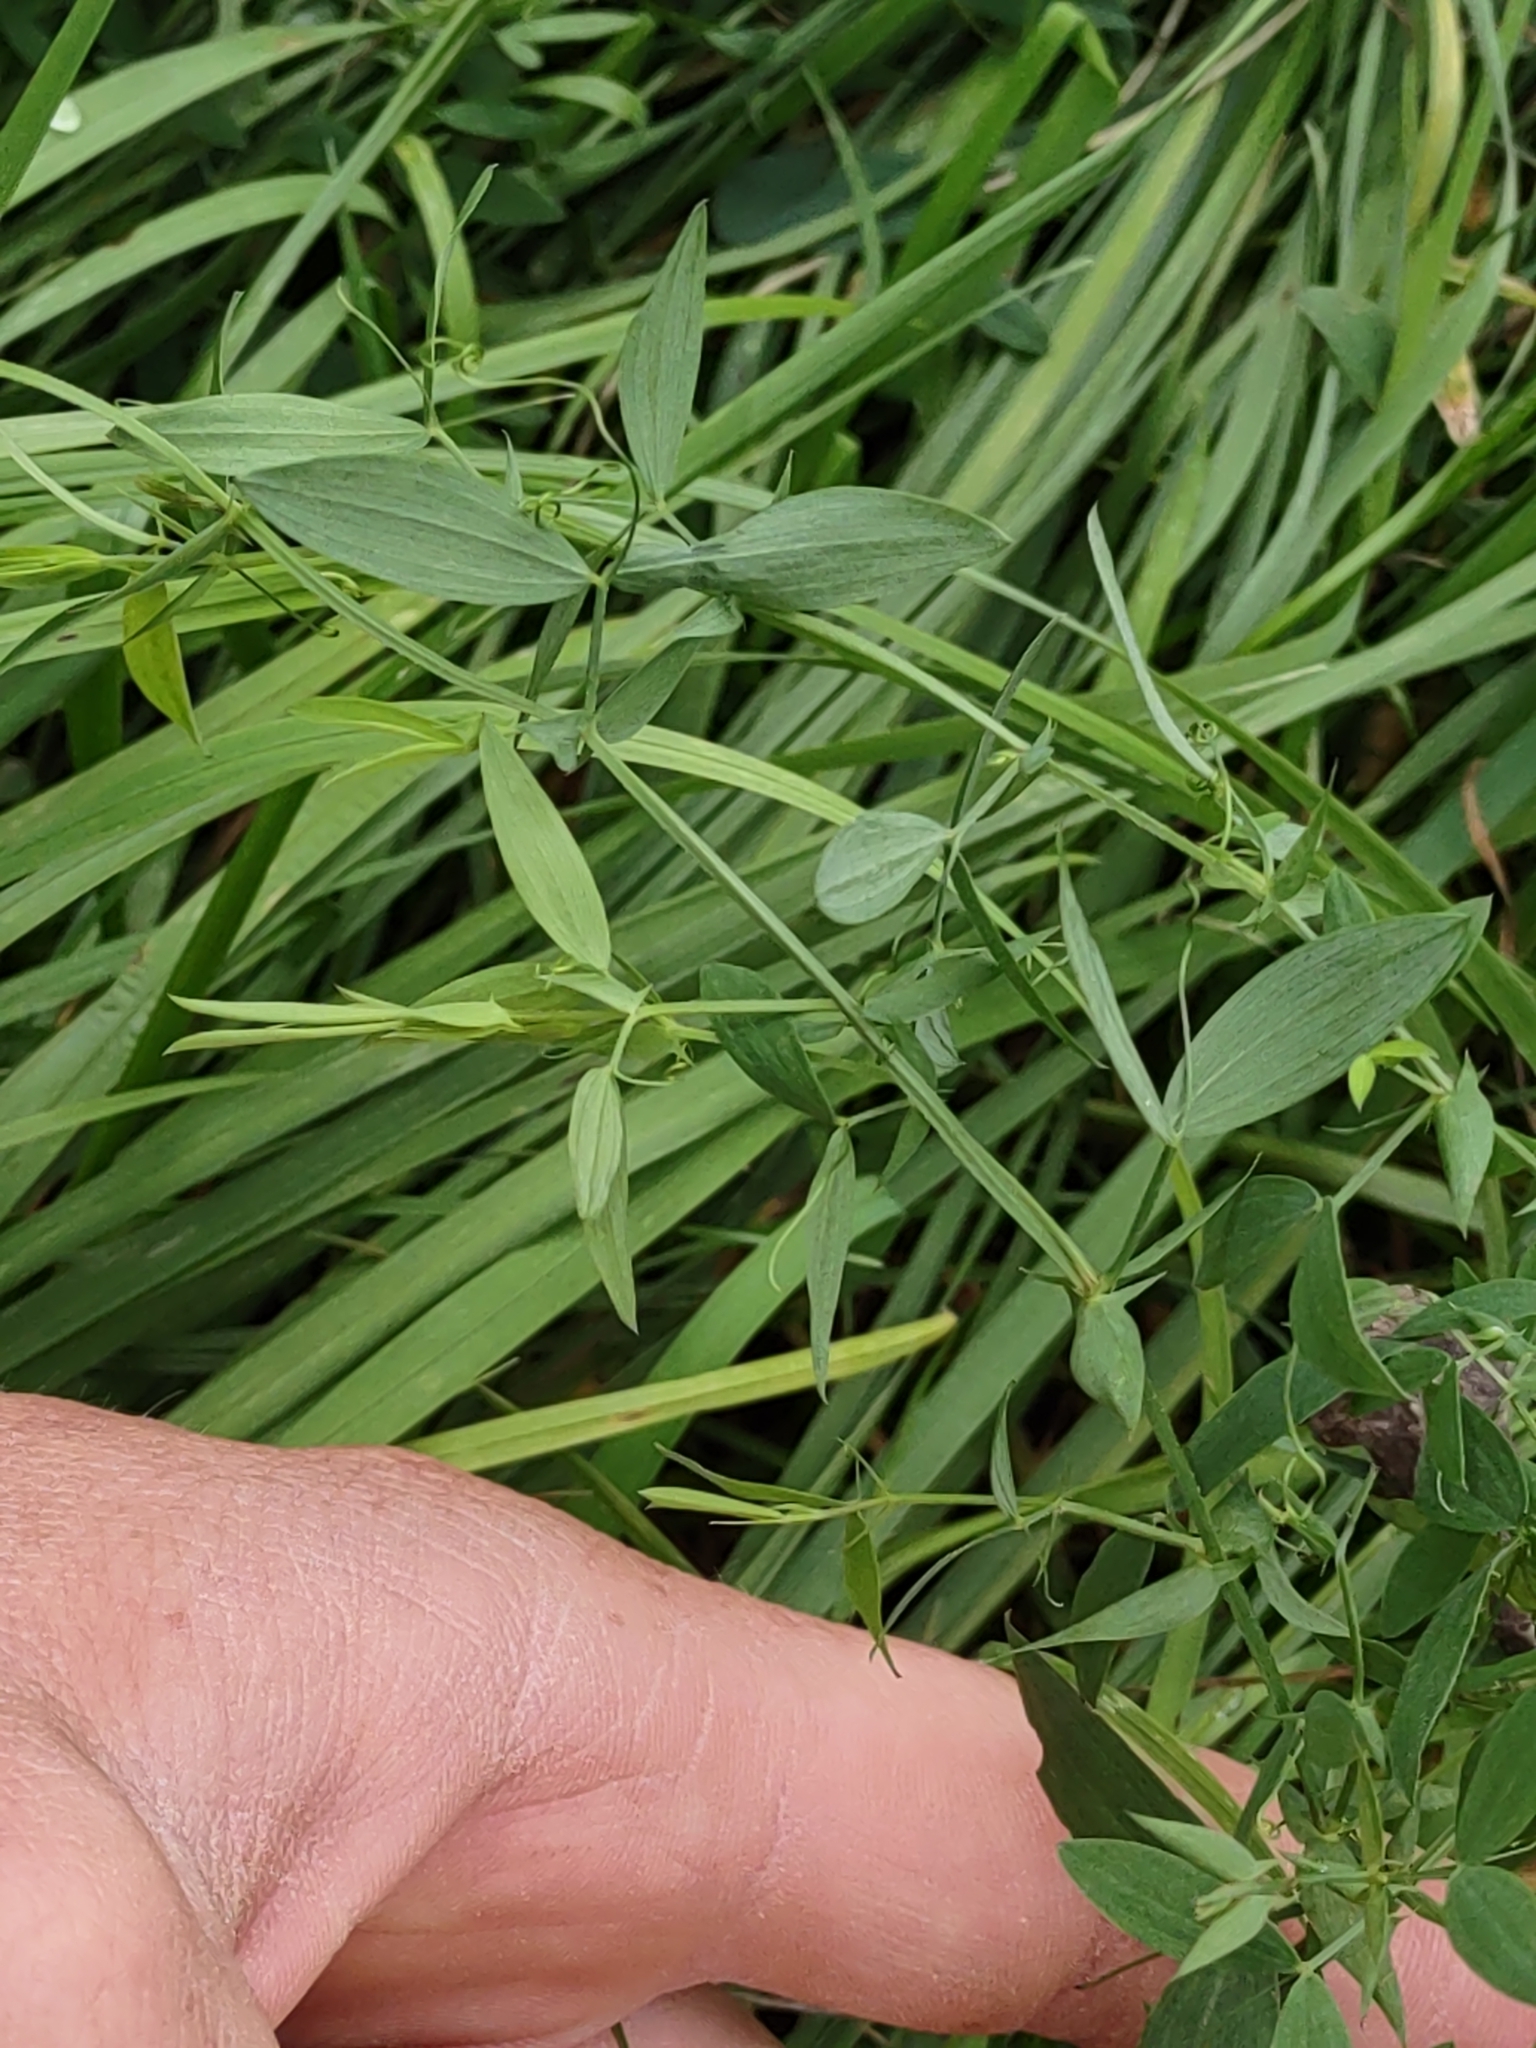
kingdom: Plantae
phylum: Tracheophyta
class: Magnoliopsida
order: Fabales
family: Fabaceae
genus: Lathyrus
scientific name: Lathyrus pratensis
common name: Meadow vetchling
